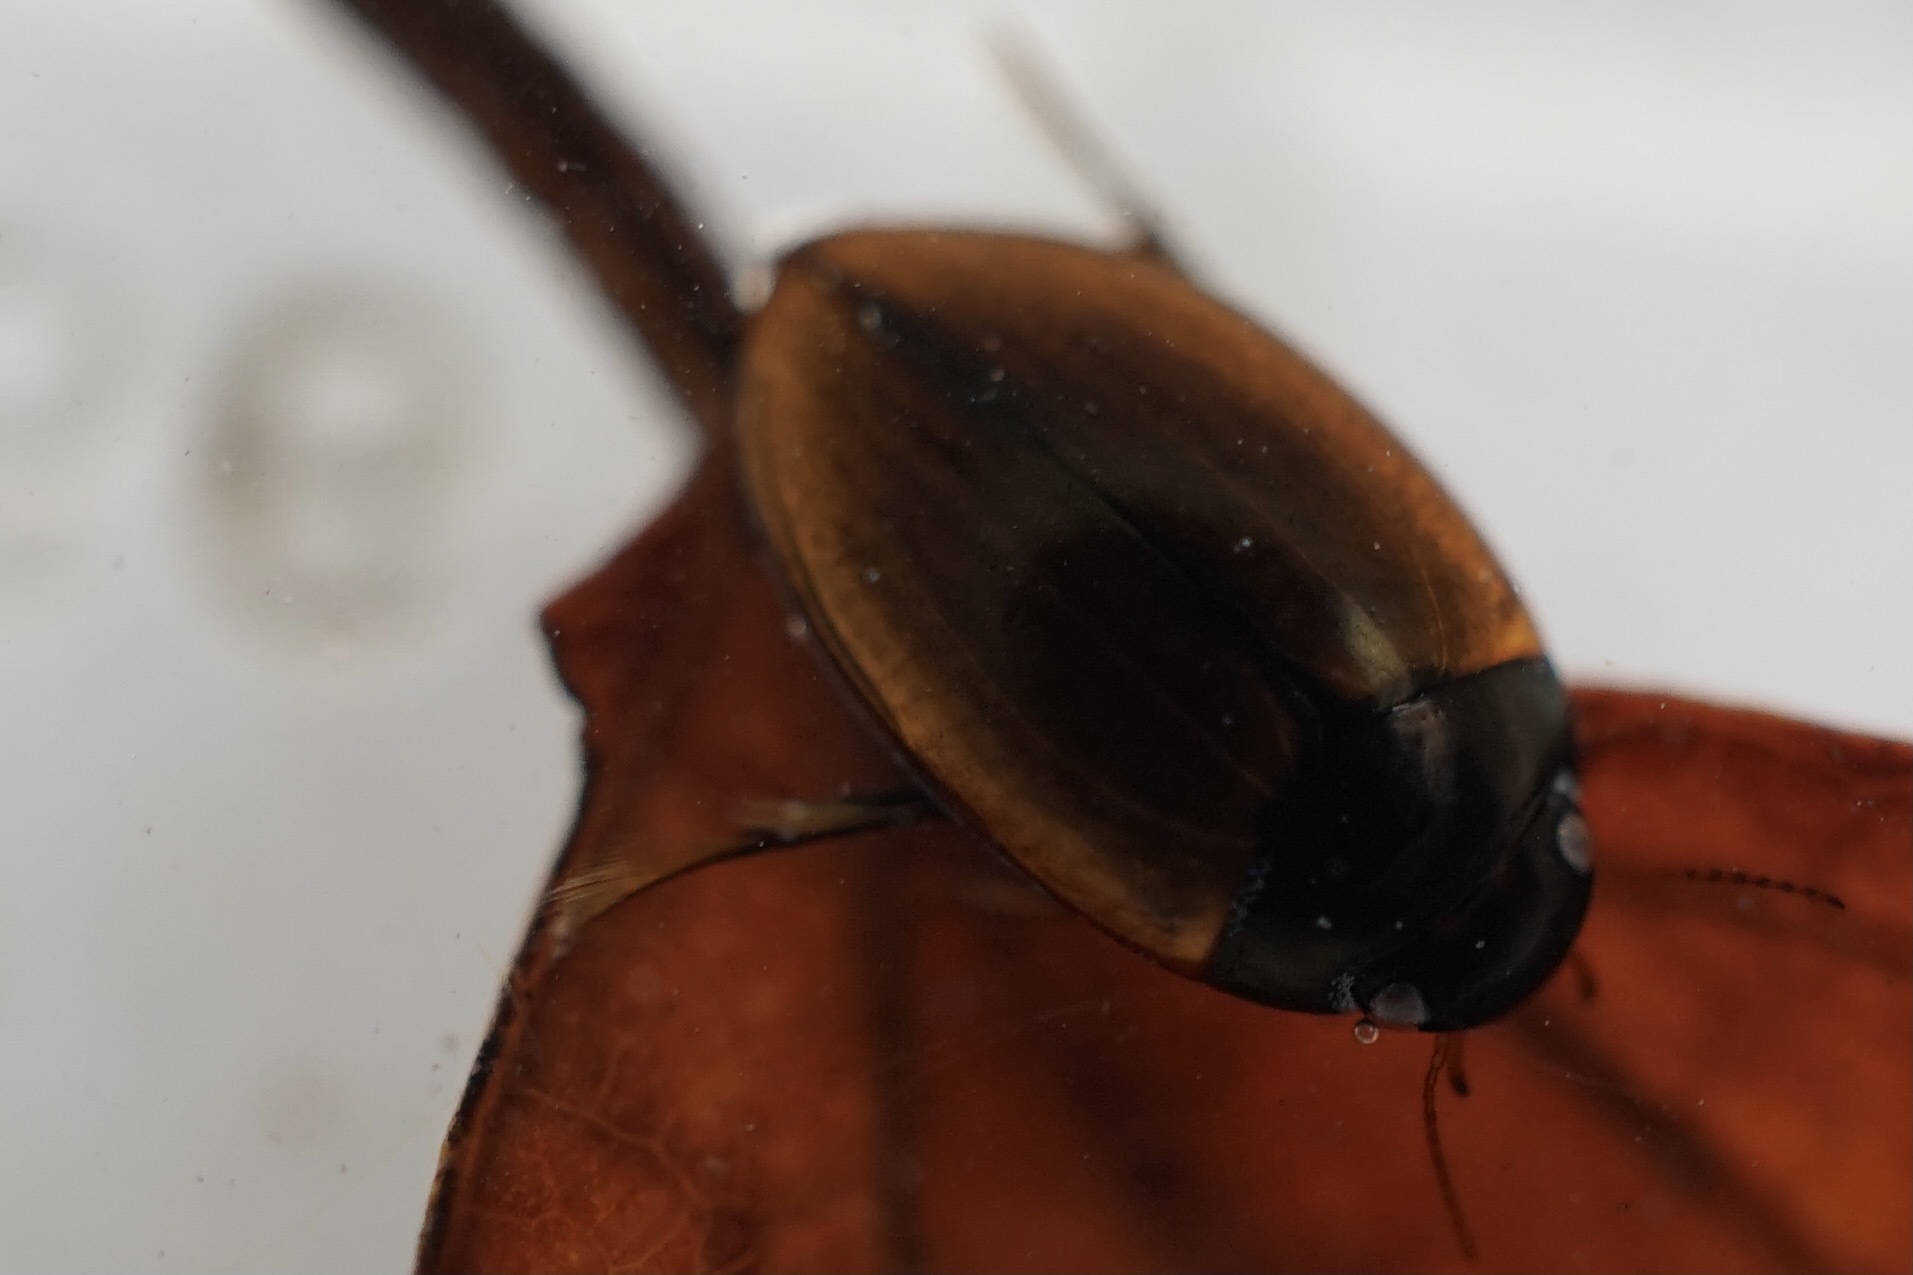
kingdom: Animalia
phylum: Arthropoda
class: Insecta
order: Coleoptera
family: Dytiscidae
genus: Agabus
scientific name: Agabus japonicus
